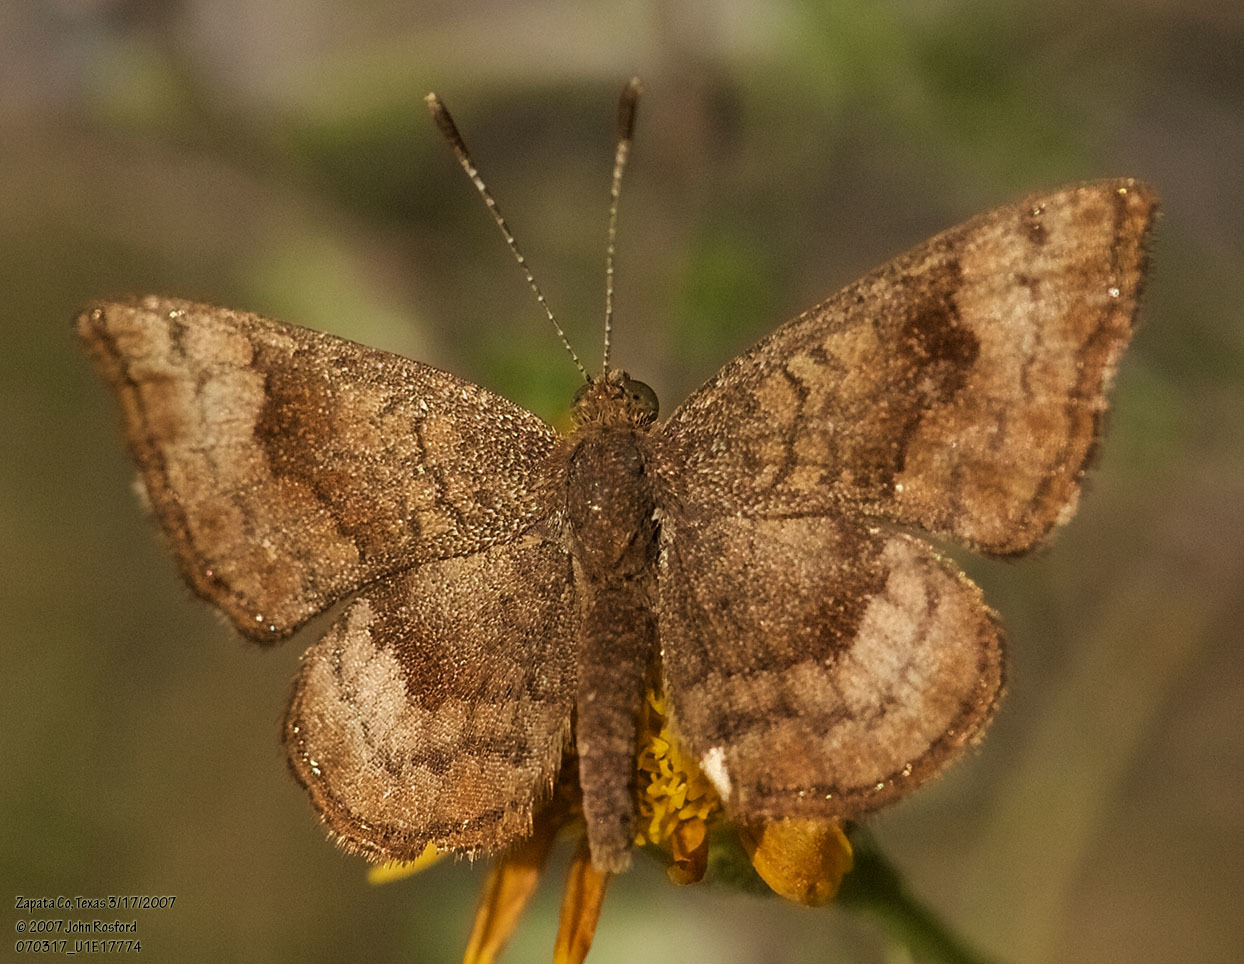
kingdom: Animalia
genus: Calephelis
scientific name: Calephelis nemesis
